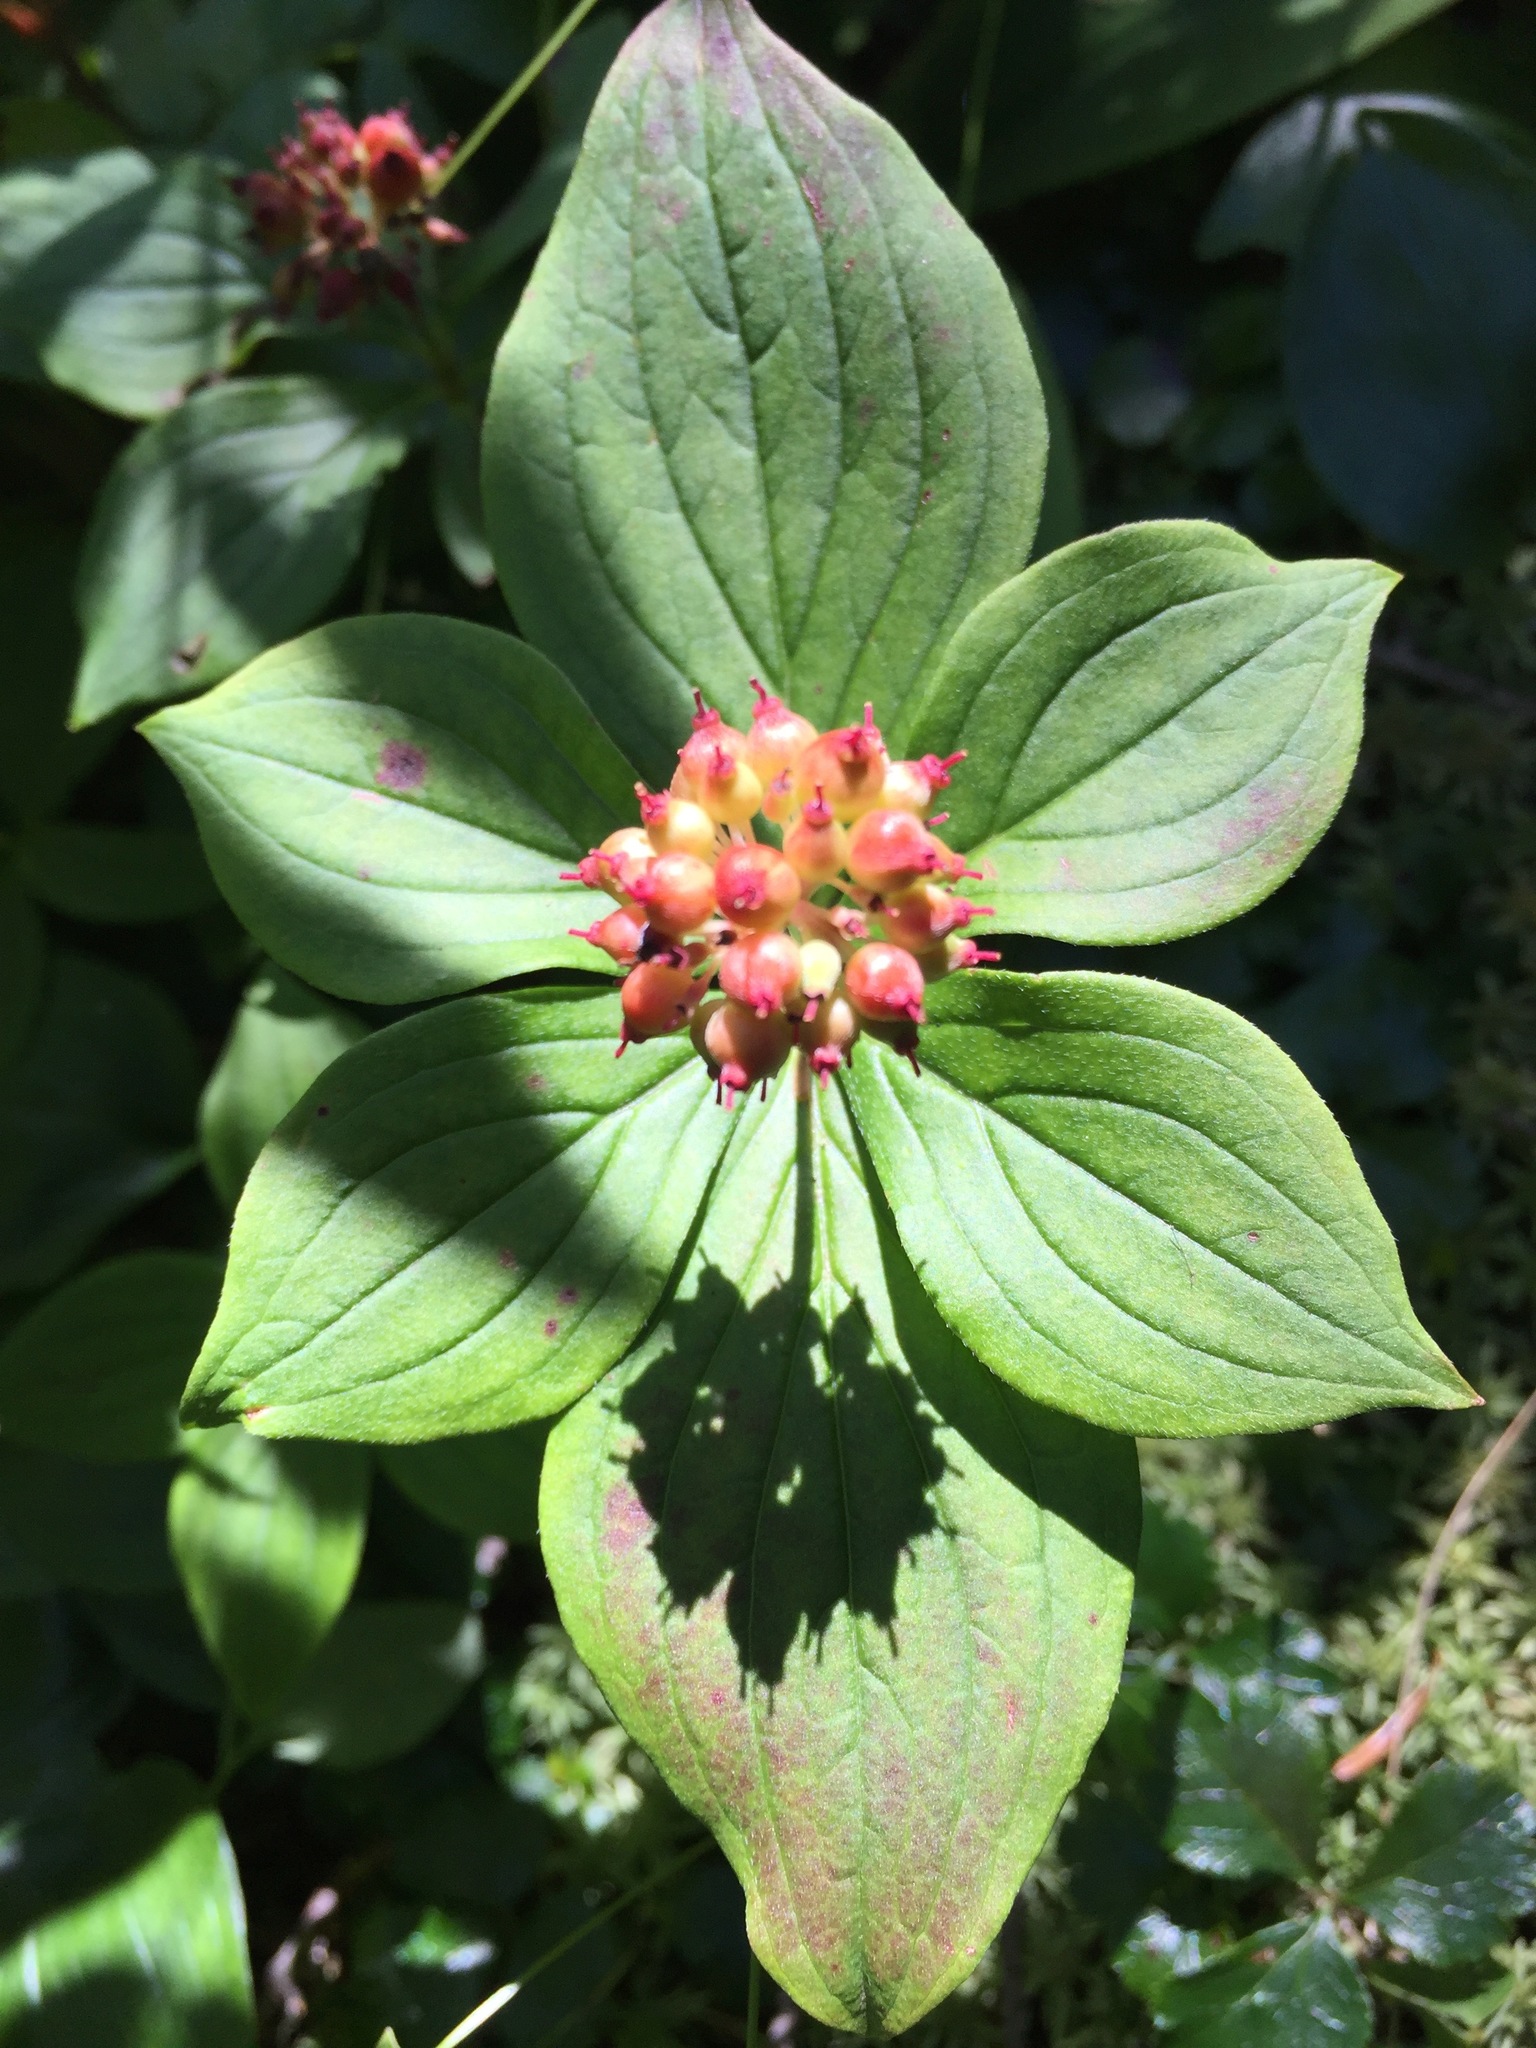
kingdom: Plantae
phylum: Tracheophyta
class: Magnoliopsida
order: Cornales
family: Cornaceae
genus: Cornus
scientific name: Cornus canadensis
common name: Creeping dogwood
